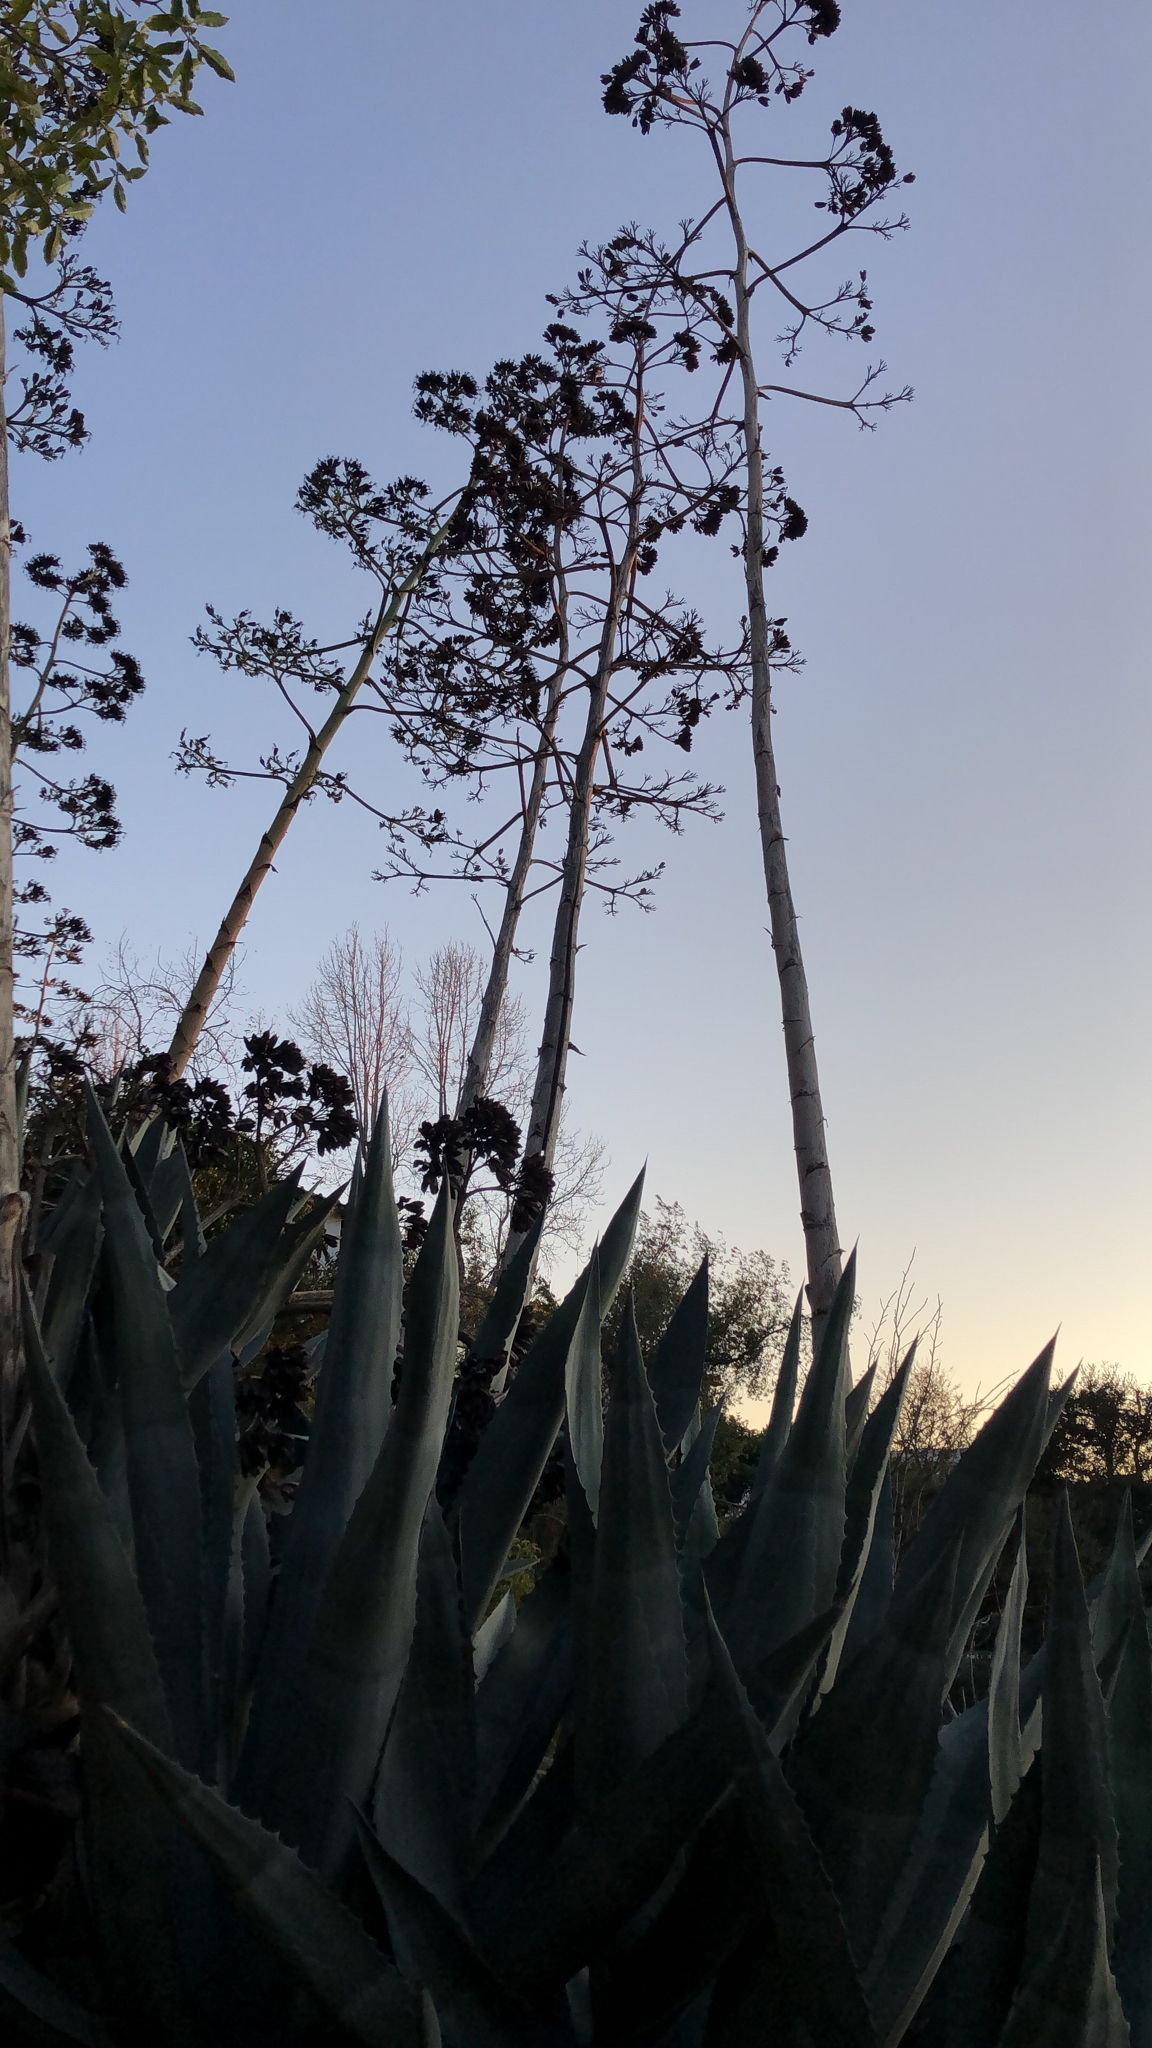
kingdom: Plantae
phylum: Tracheophyta
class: Liliopsida
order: Asparagales
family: Asparagaceae
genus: Agave
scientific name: Agave americana
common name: Centuryplant
